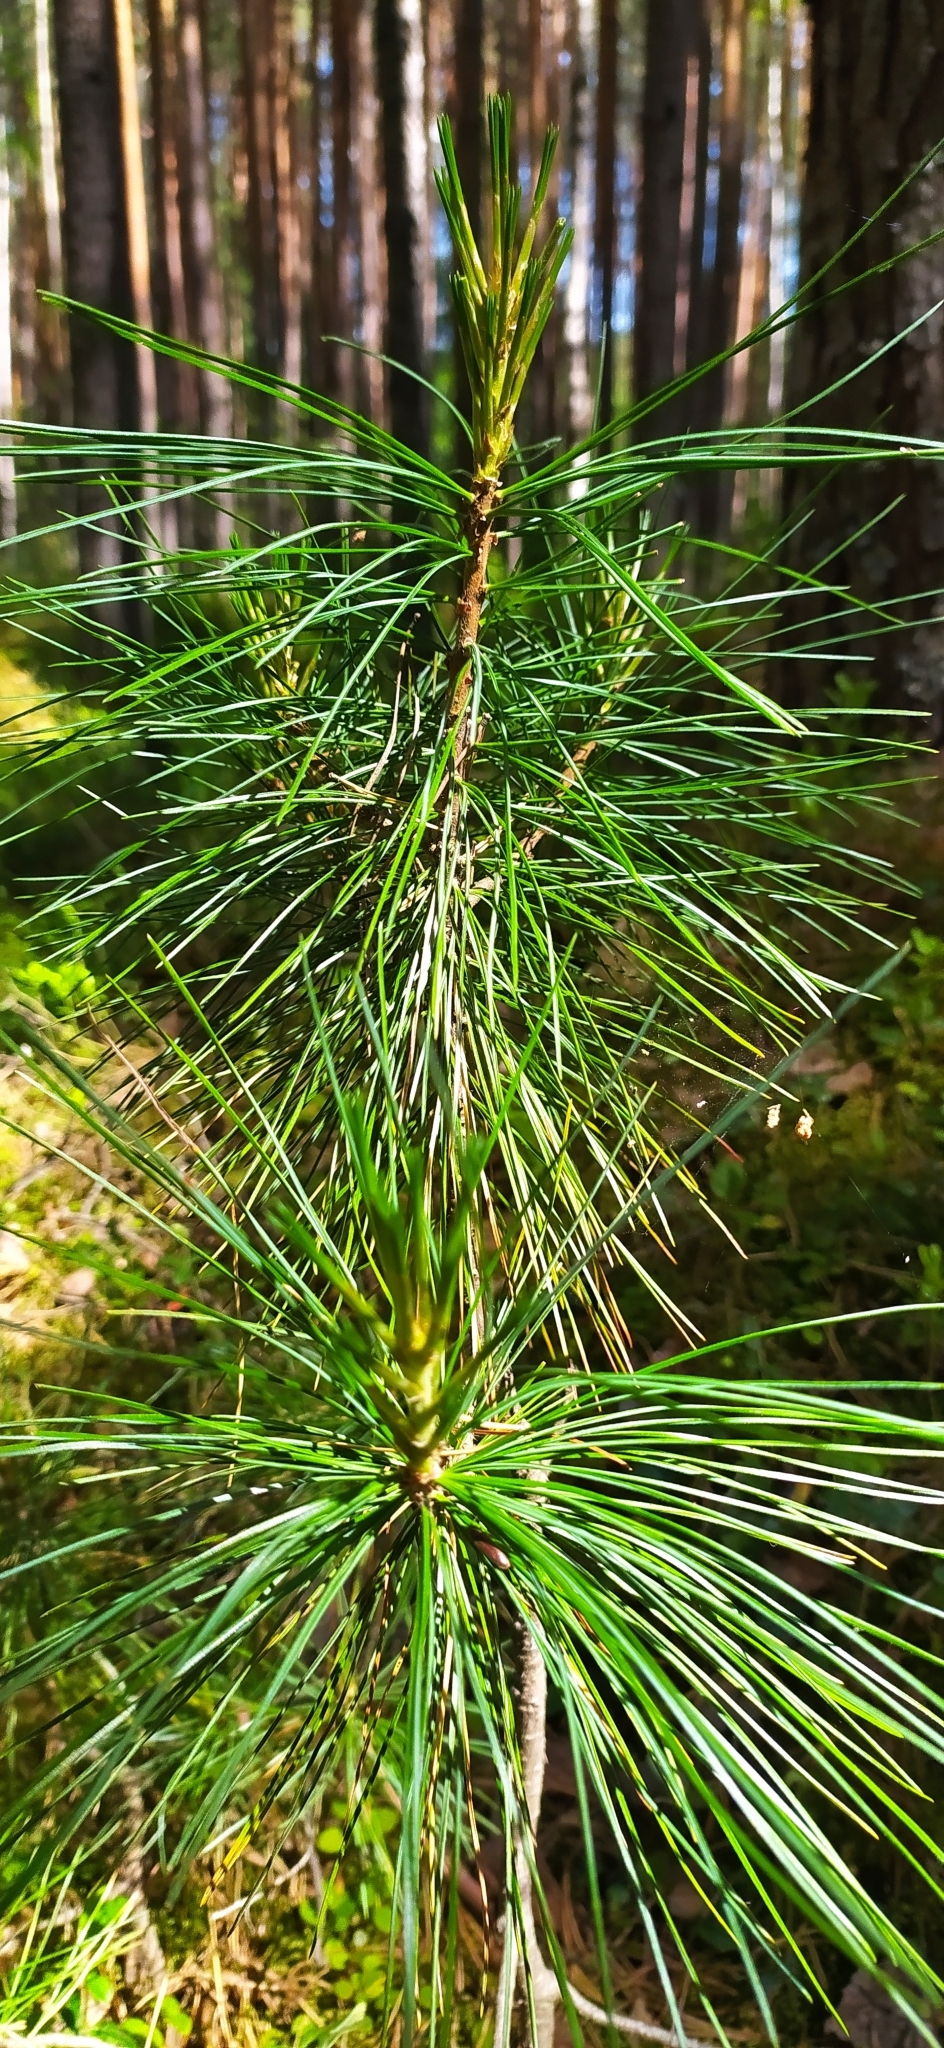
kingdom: Plantae
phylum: Tracheophyta
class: Pinopsida
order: Pinales
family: Pinaceae
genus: Pinus
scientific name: Pinus sibirica
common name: Siberian pine
